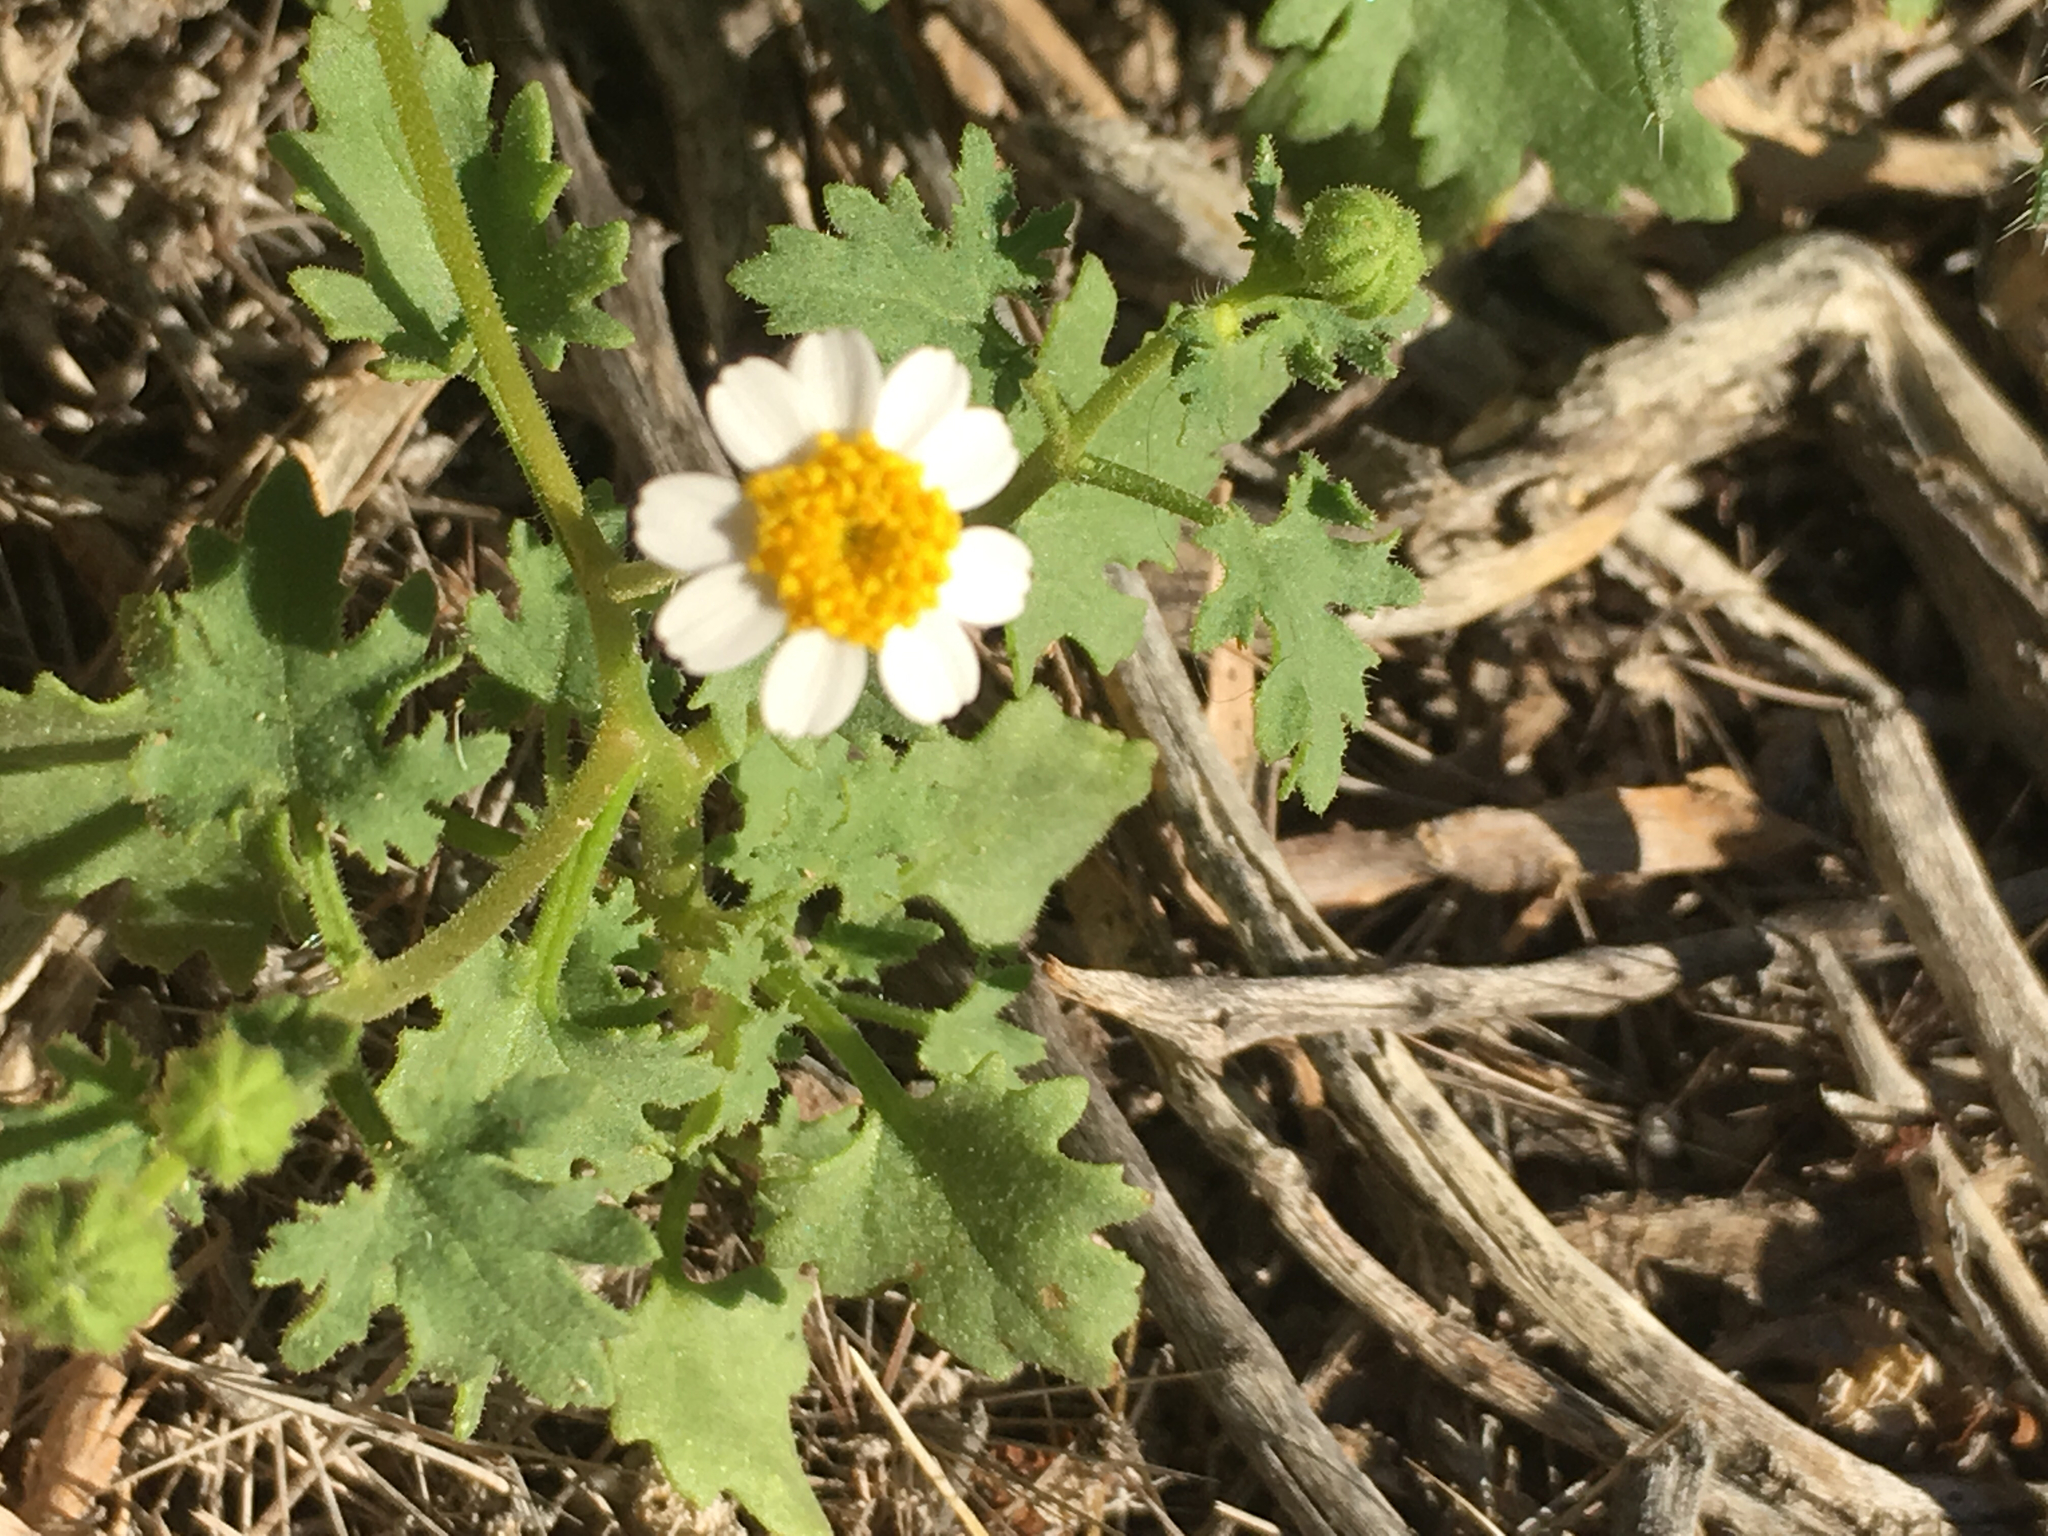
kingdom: Plantae
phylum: Tracheophyta
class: Magnoliopsida
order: Asterales
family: Asteraceae
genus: Laphamia
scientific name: Laphamia emoryi
